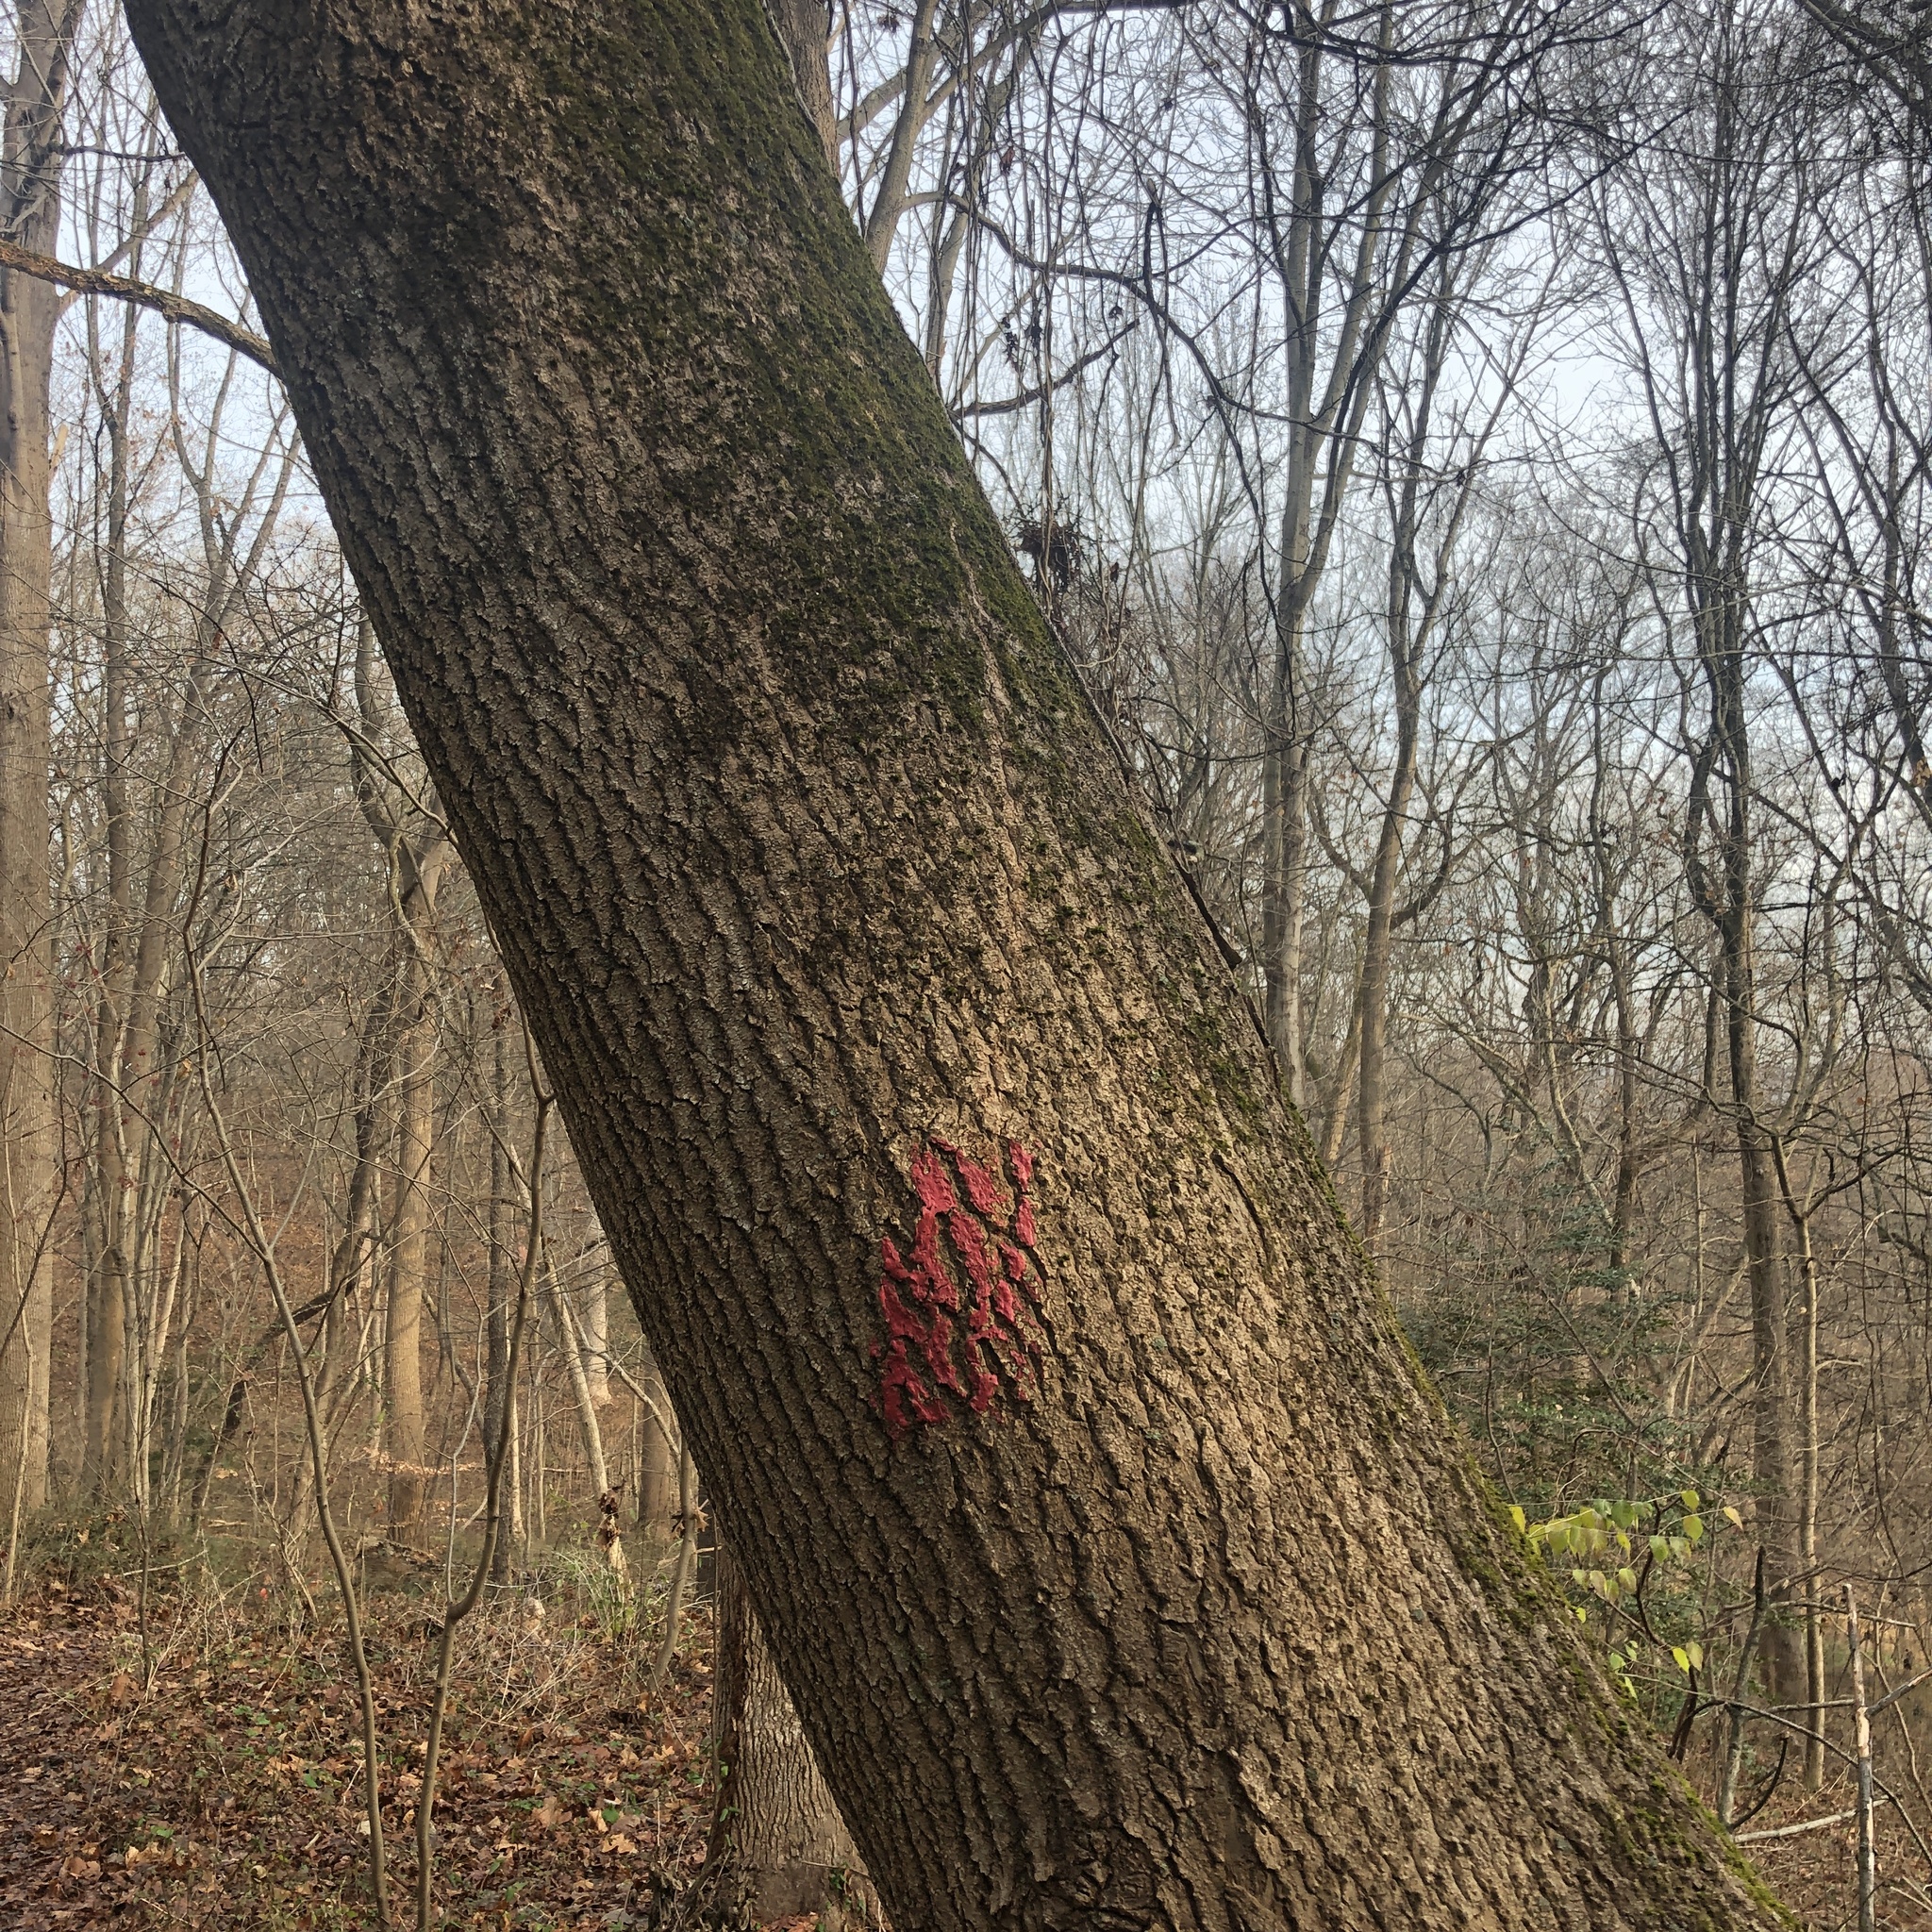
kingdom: Plantae
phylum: Tracheophyta
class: Magnoliopsida
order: Lamiales
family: Paulowniaceae
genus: Paulownia
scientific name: Paulownia tomentosa
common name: Foxglove-tree
